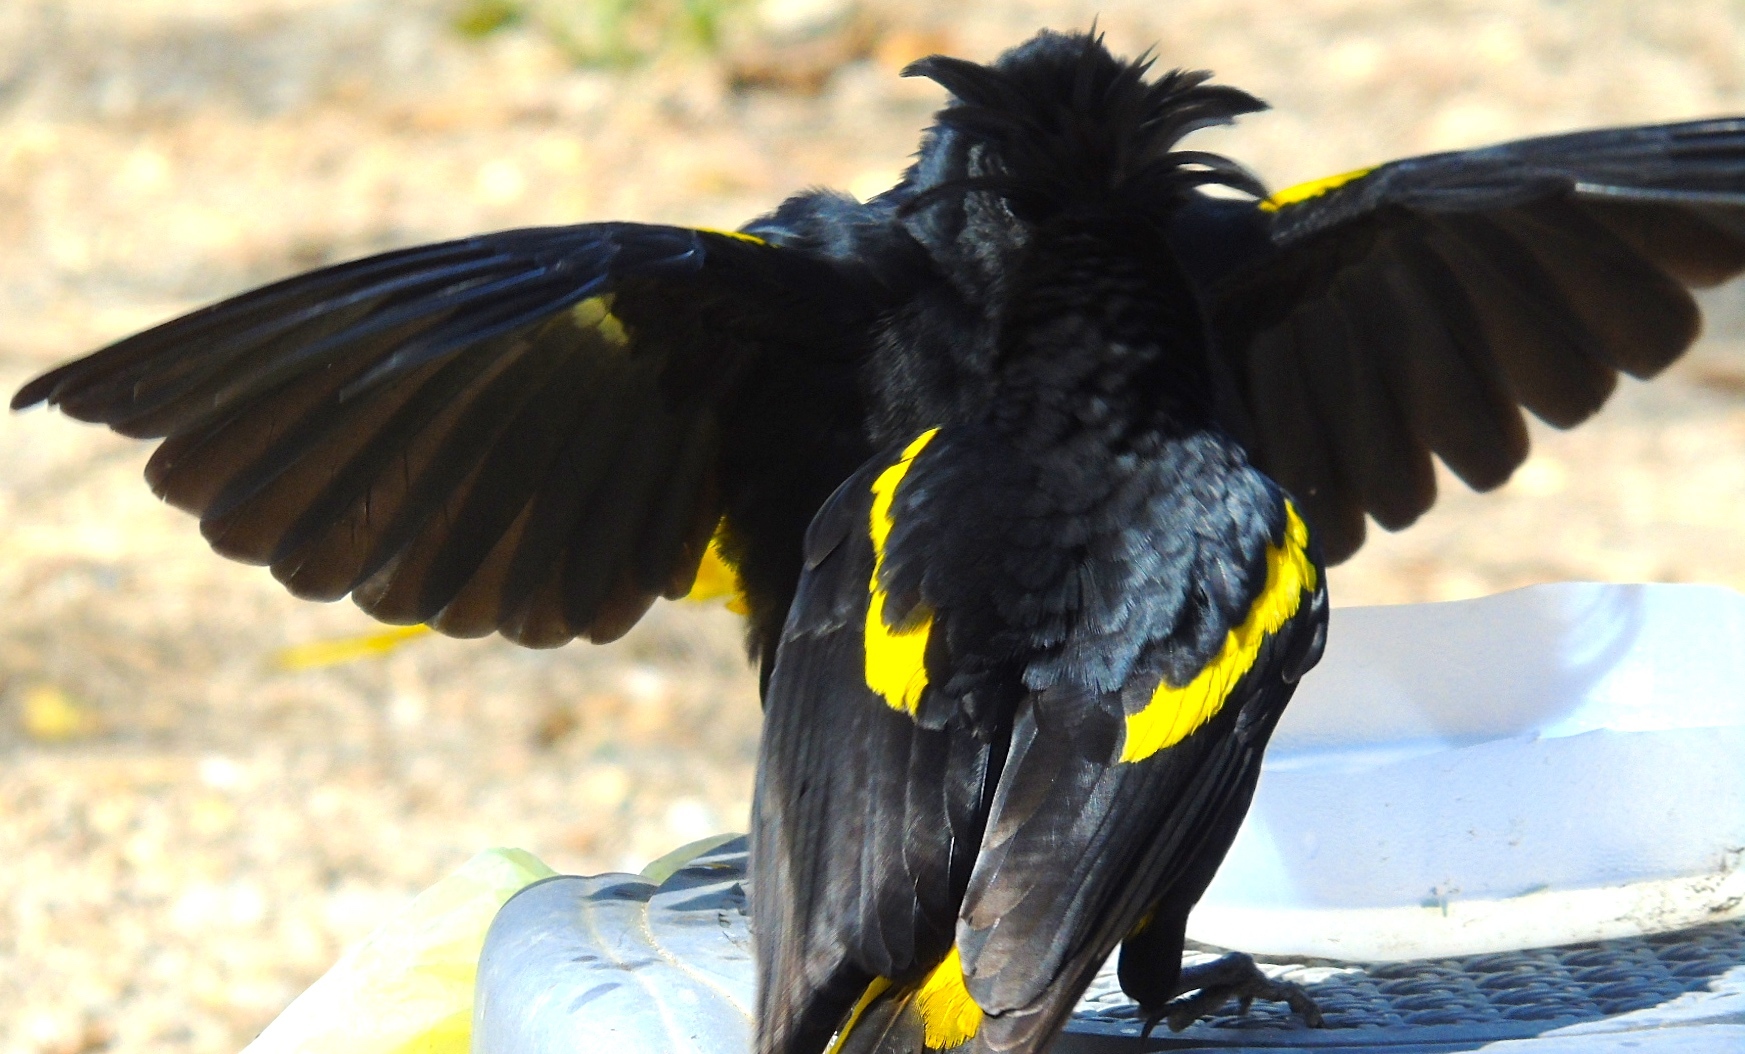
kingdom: Animalia
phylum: Chordata
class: Aves
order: Passeriformes
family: Icteridae
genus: Cacicus
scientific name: Cacicus melanicterus
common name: Yellow-winged cacique
